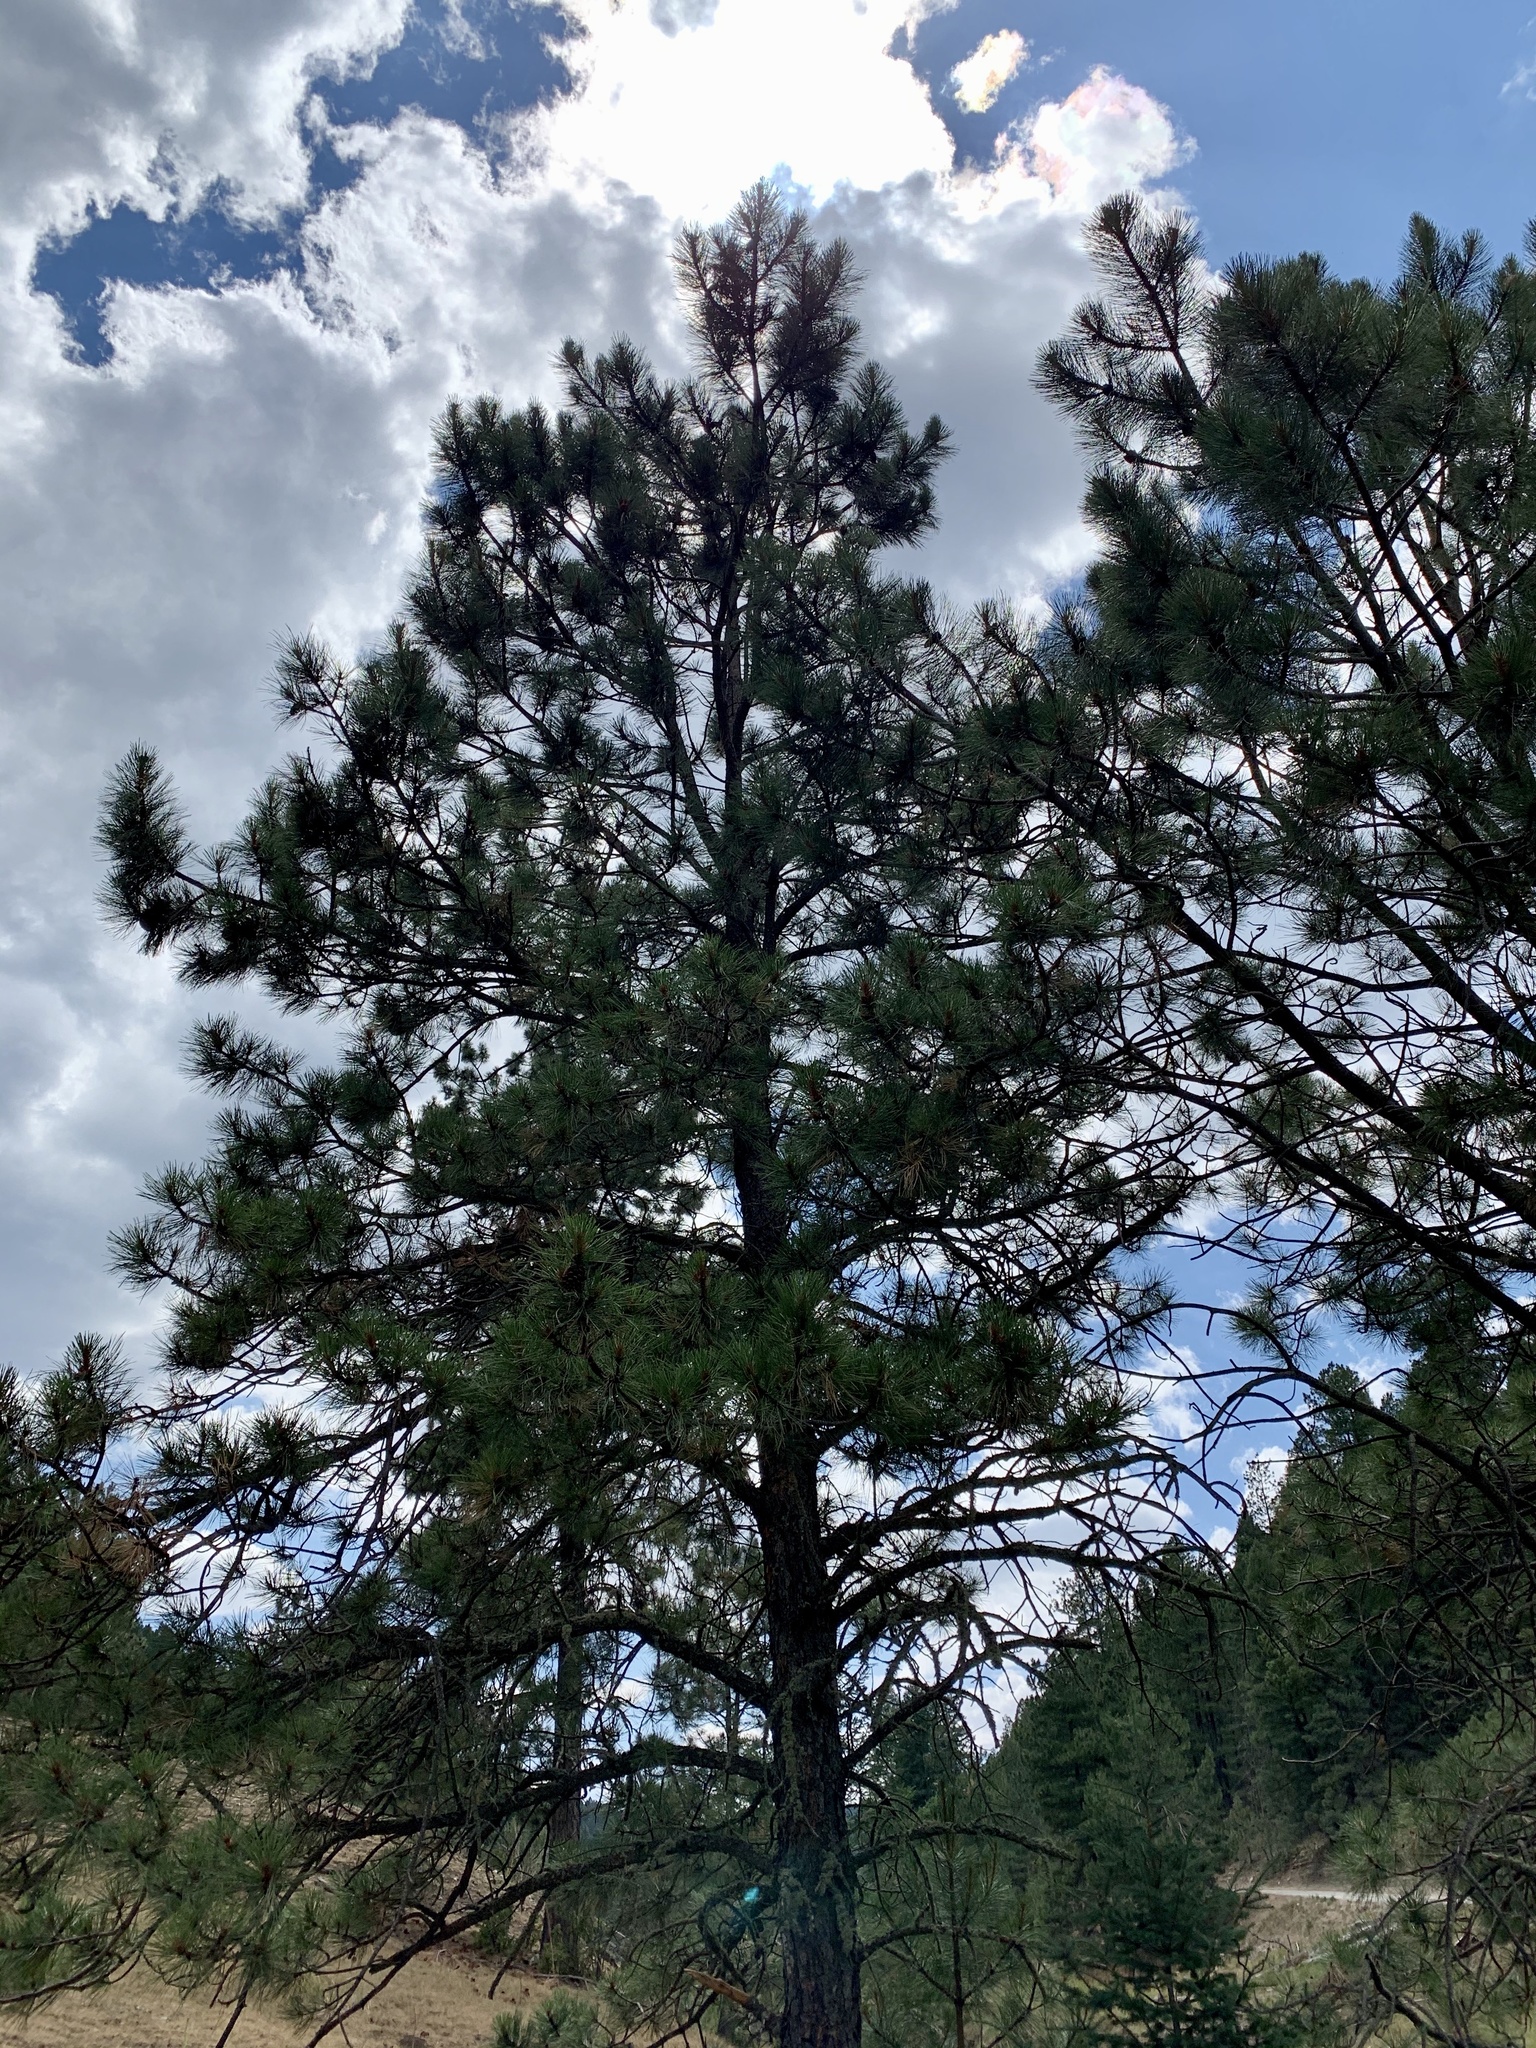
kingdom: Plantae
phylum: Tracheophyta
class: Pinopsida
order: Pinales
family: Pinaceae
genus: Pinus
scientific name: Pinus ponderosa
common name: Western yellow-pine
